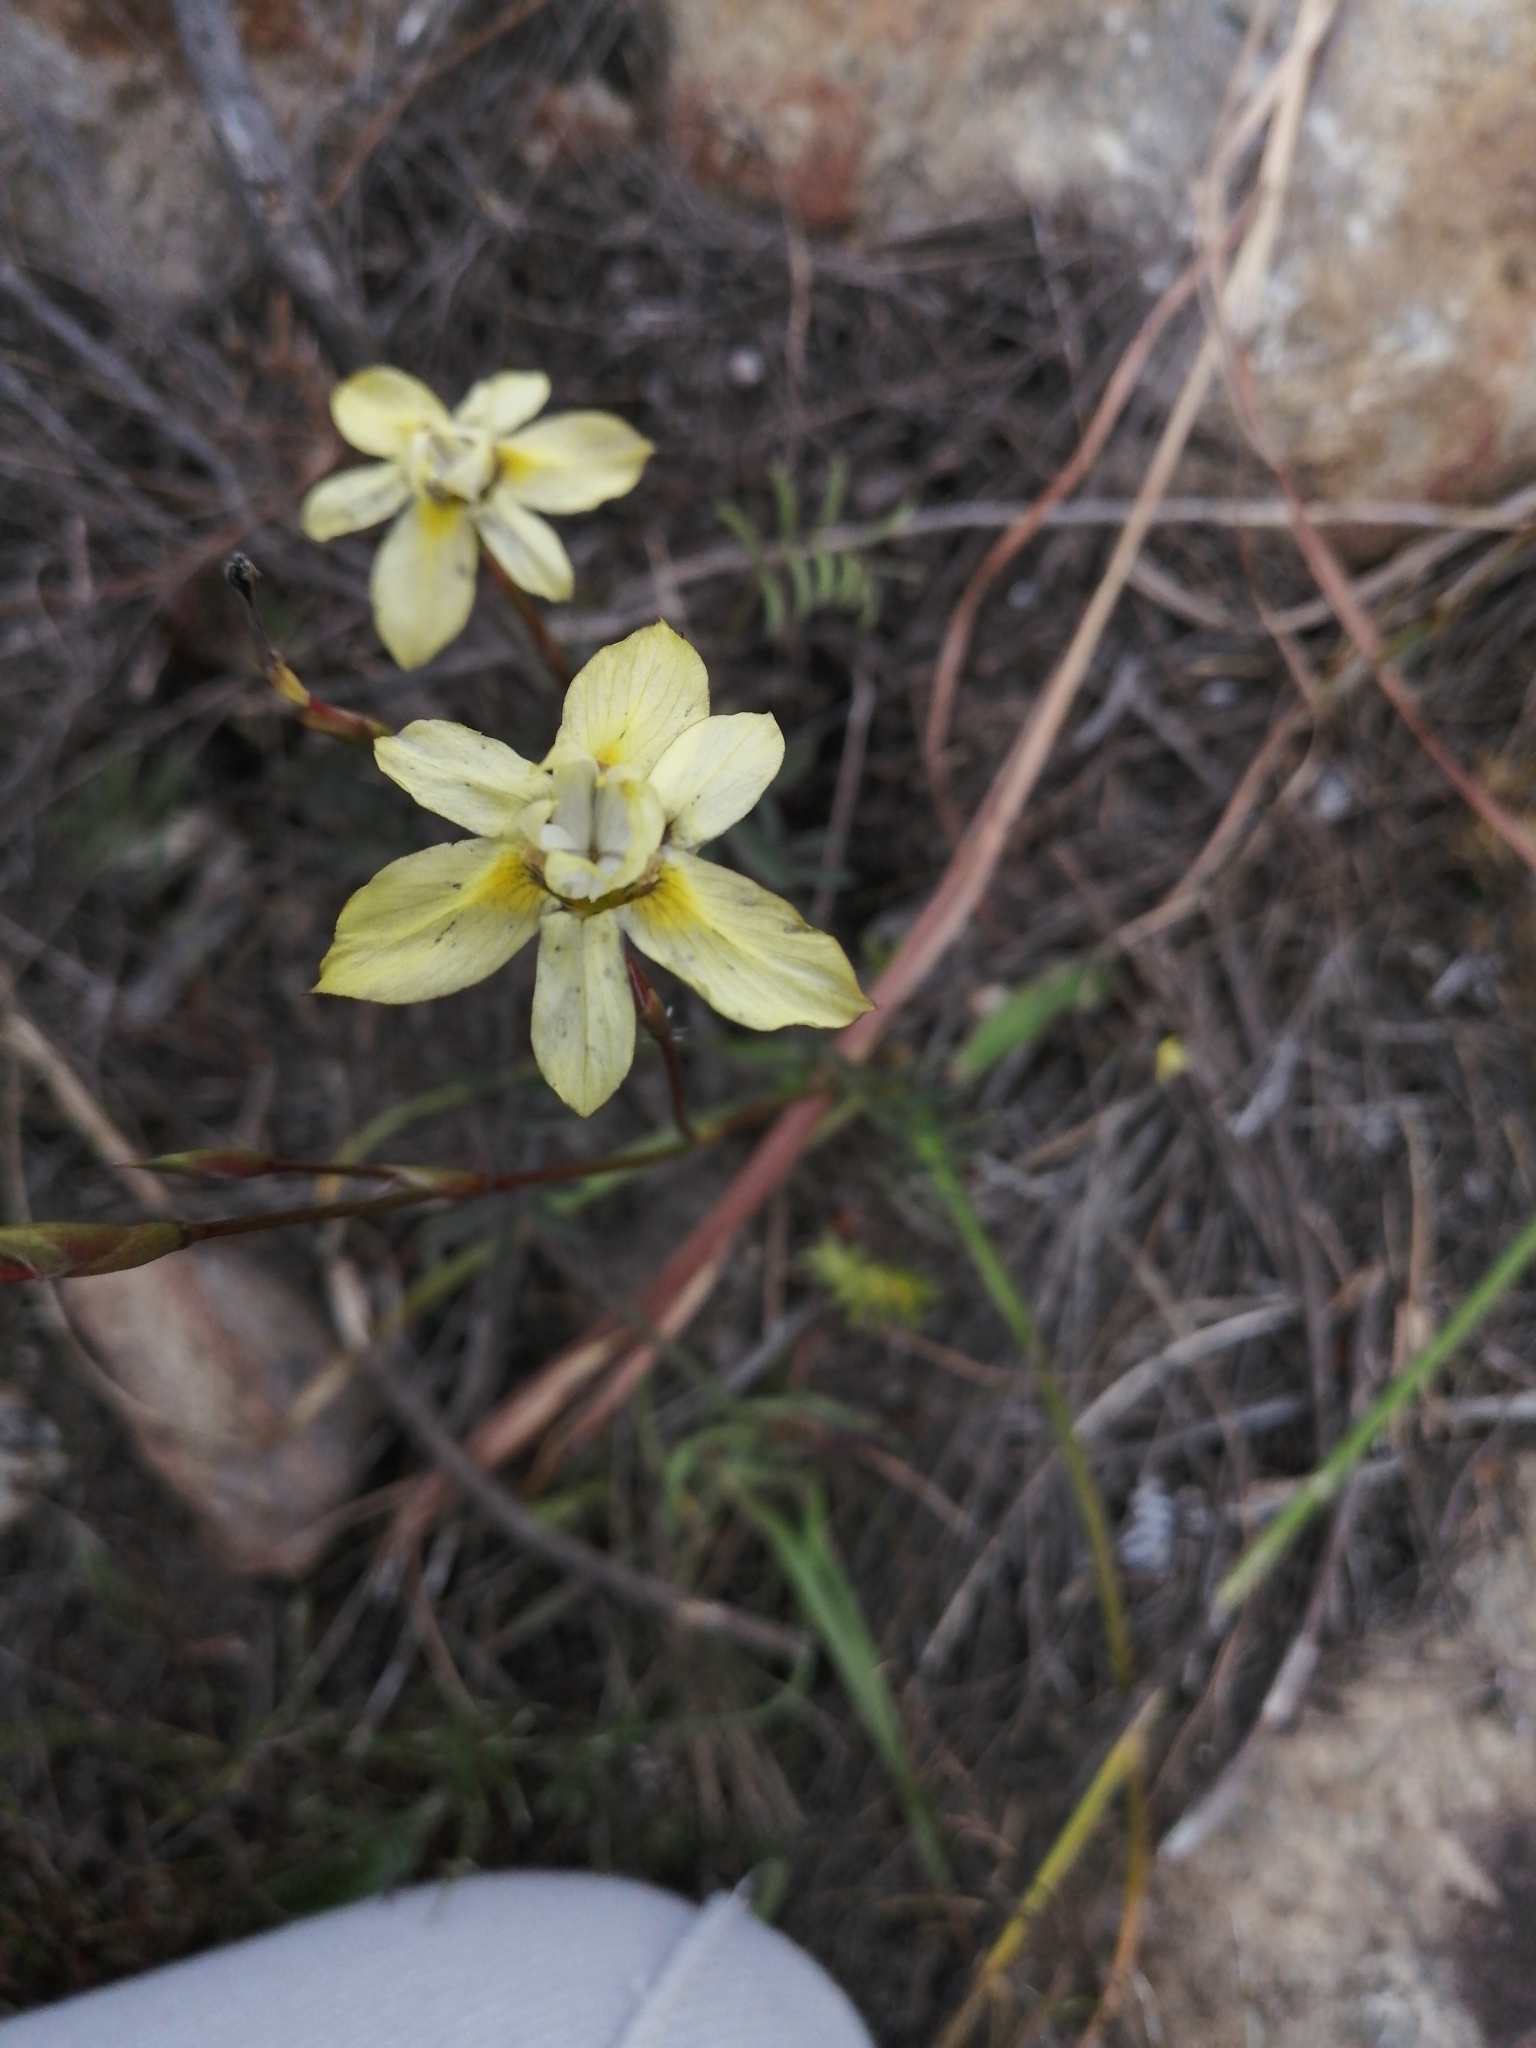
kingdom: Plantae
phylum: Tracheophyta
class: Liliopsida
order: Asparagales
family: Iridaceae
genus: Moraea
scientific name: Moraea gawleri
